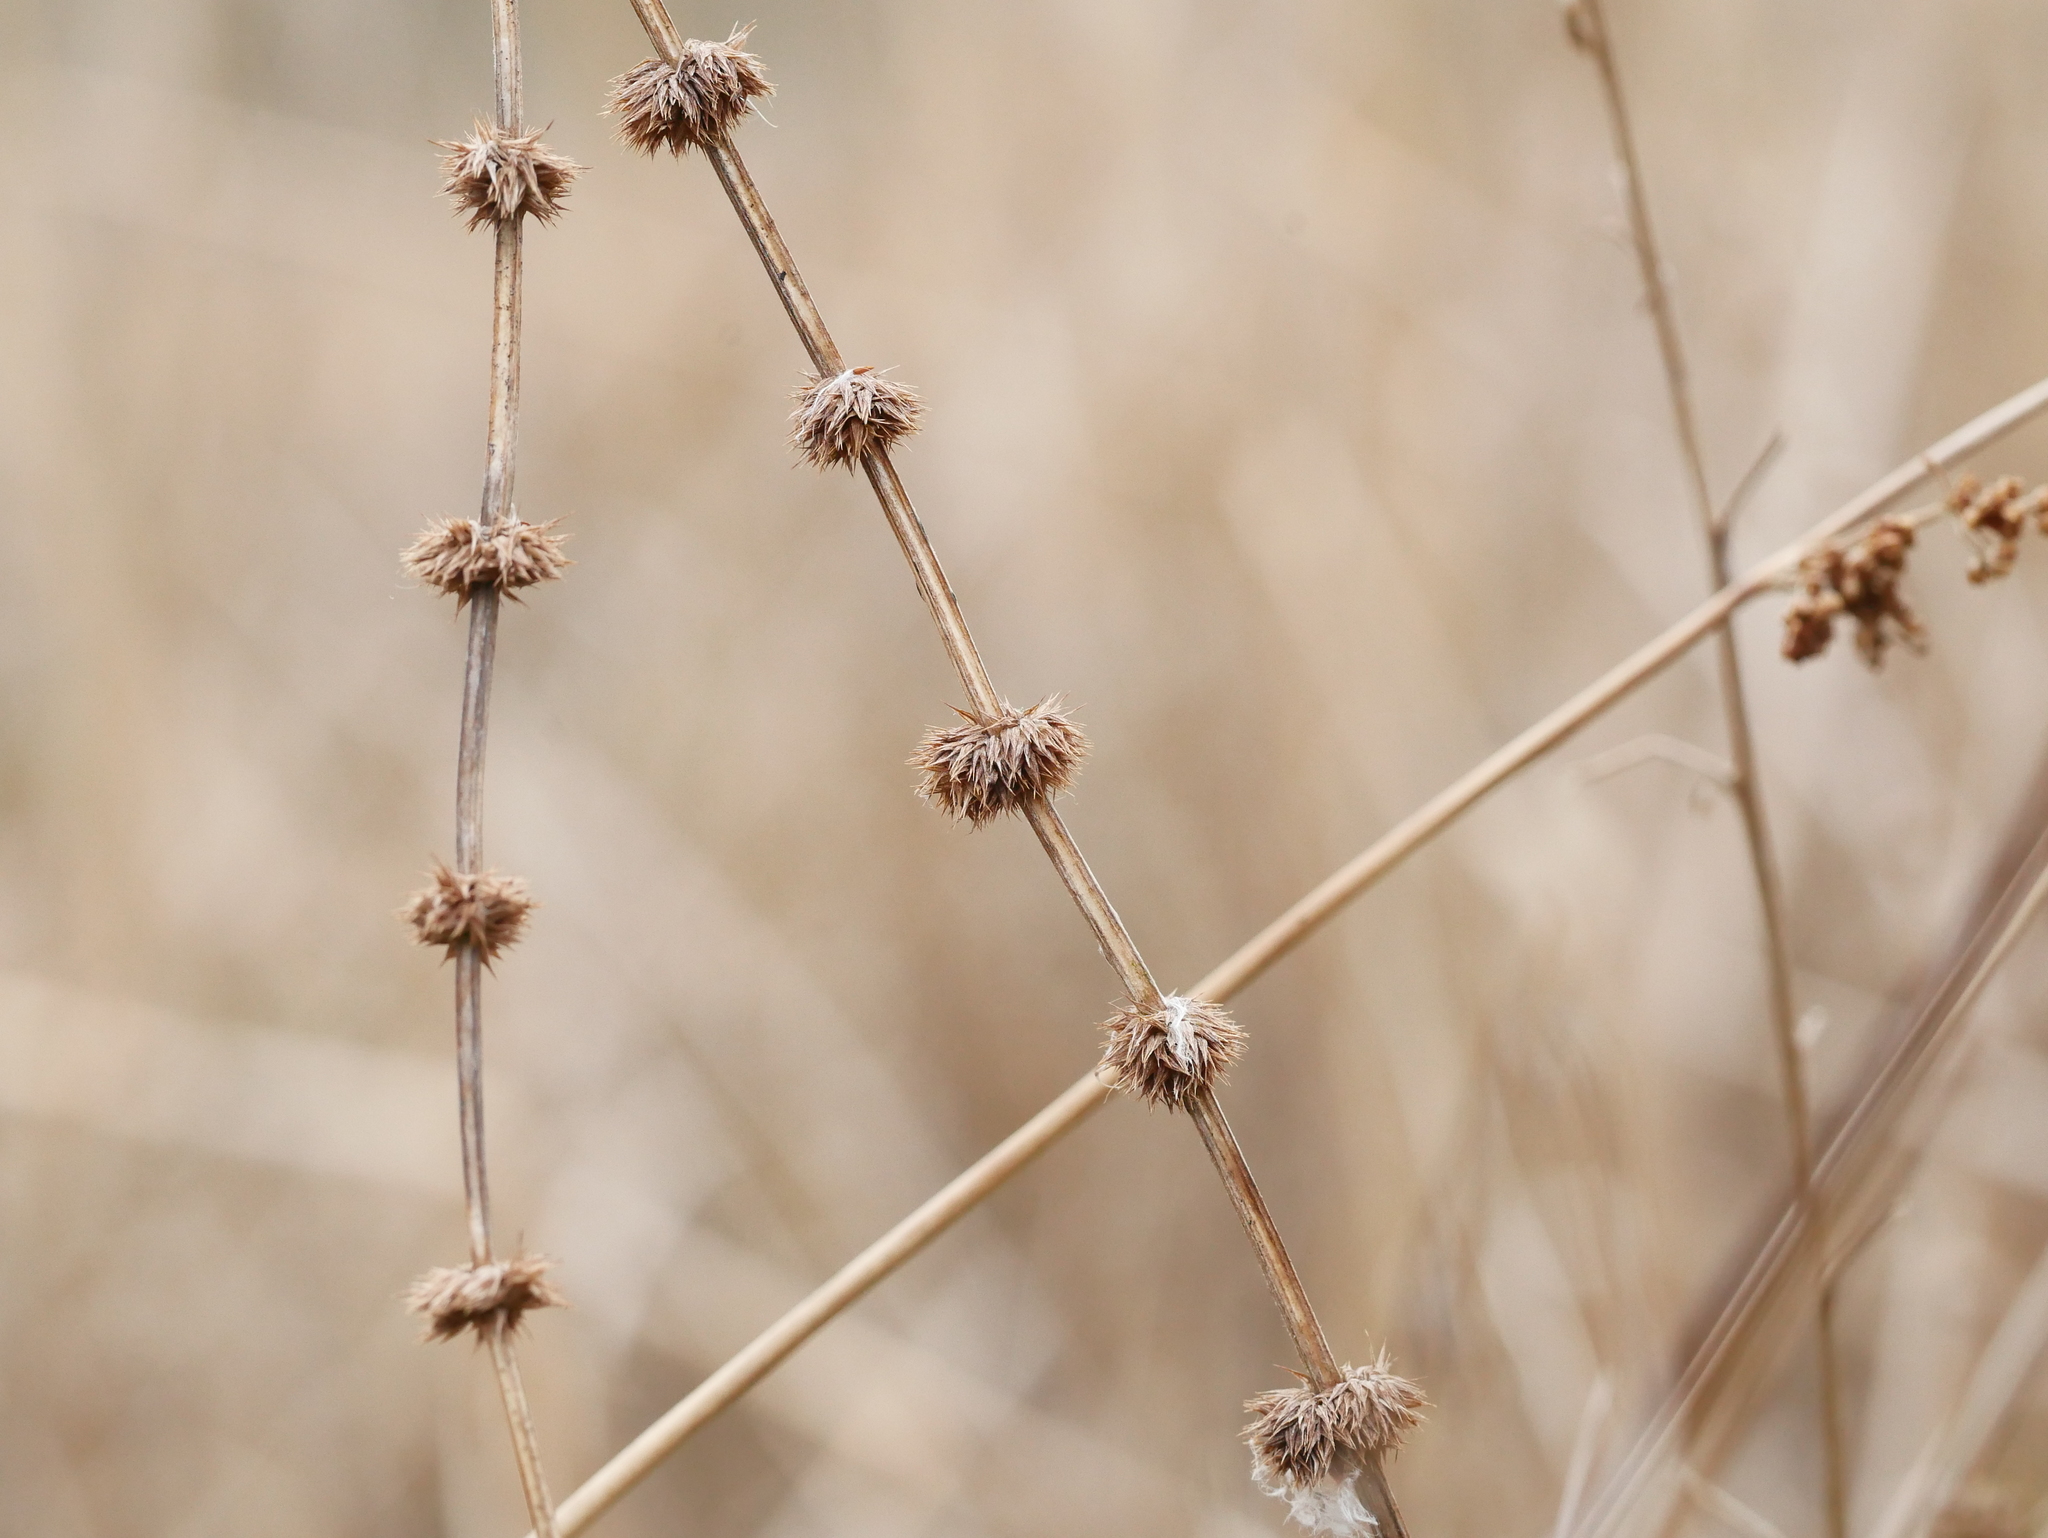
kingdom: Plantae
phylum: Tracheophyta
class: Magnoliopsida
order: Lamiales
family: Lamiaceae
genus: Lycopus
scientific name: Lycopus europaeus
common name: European bugleweed
